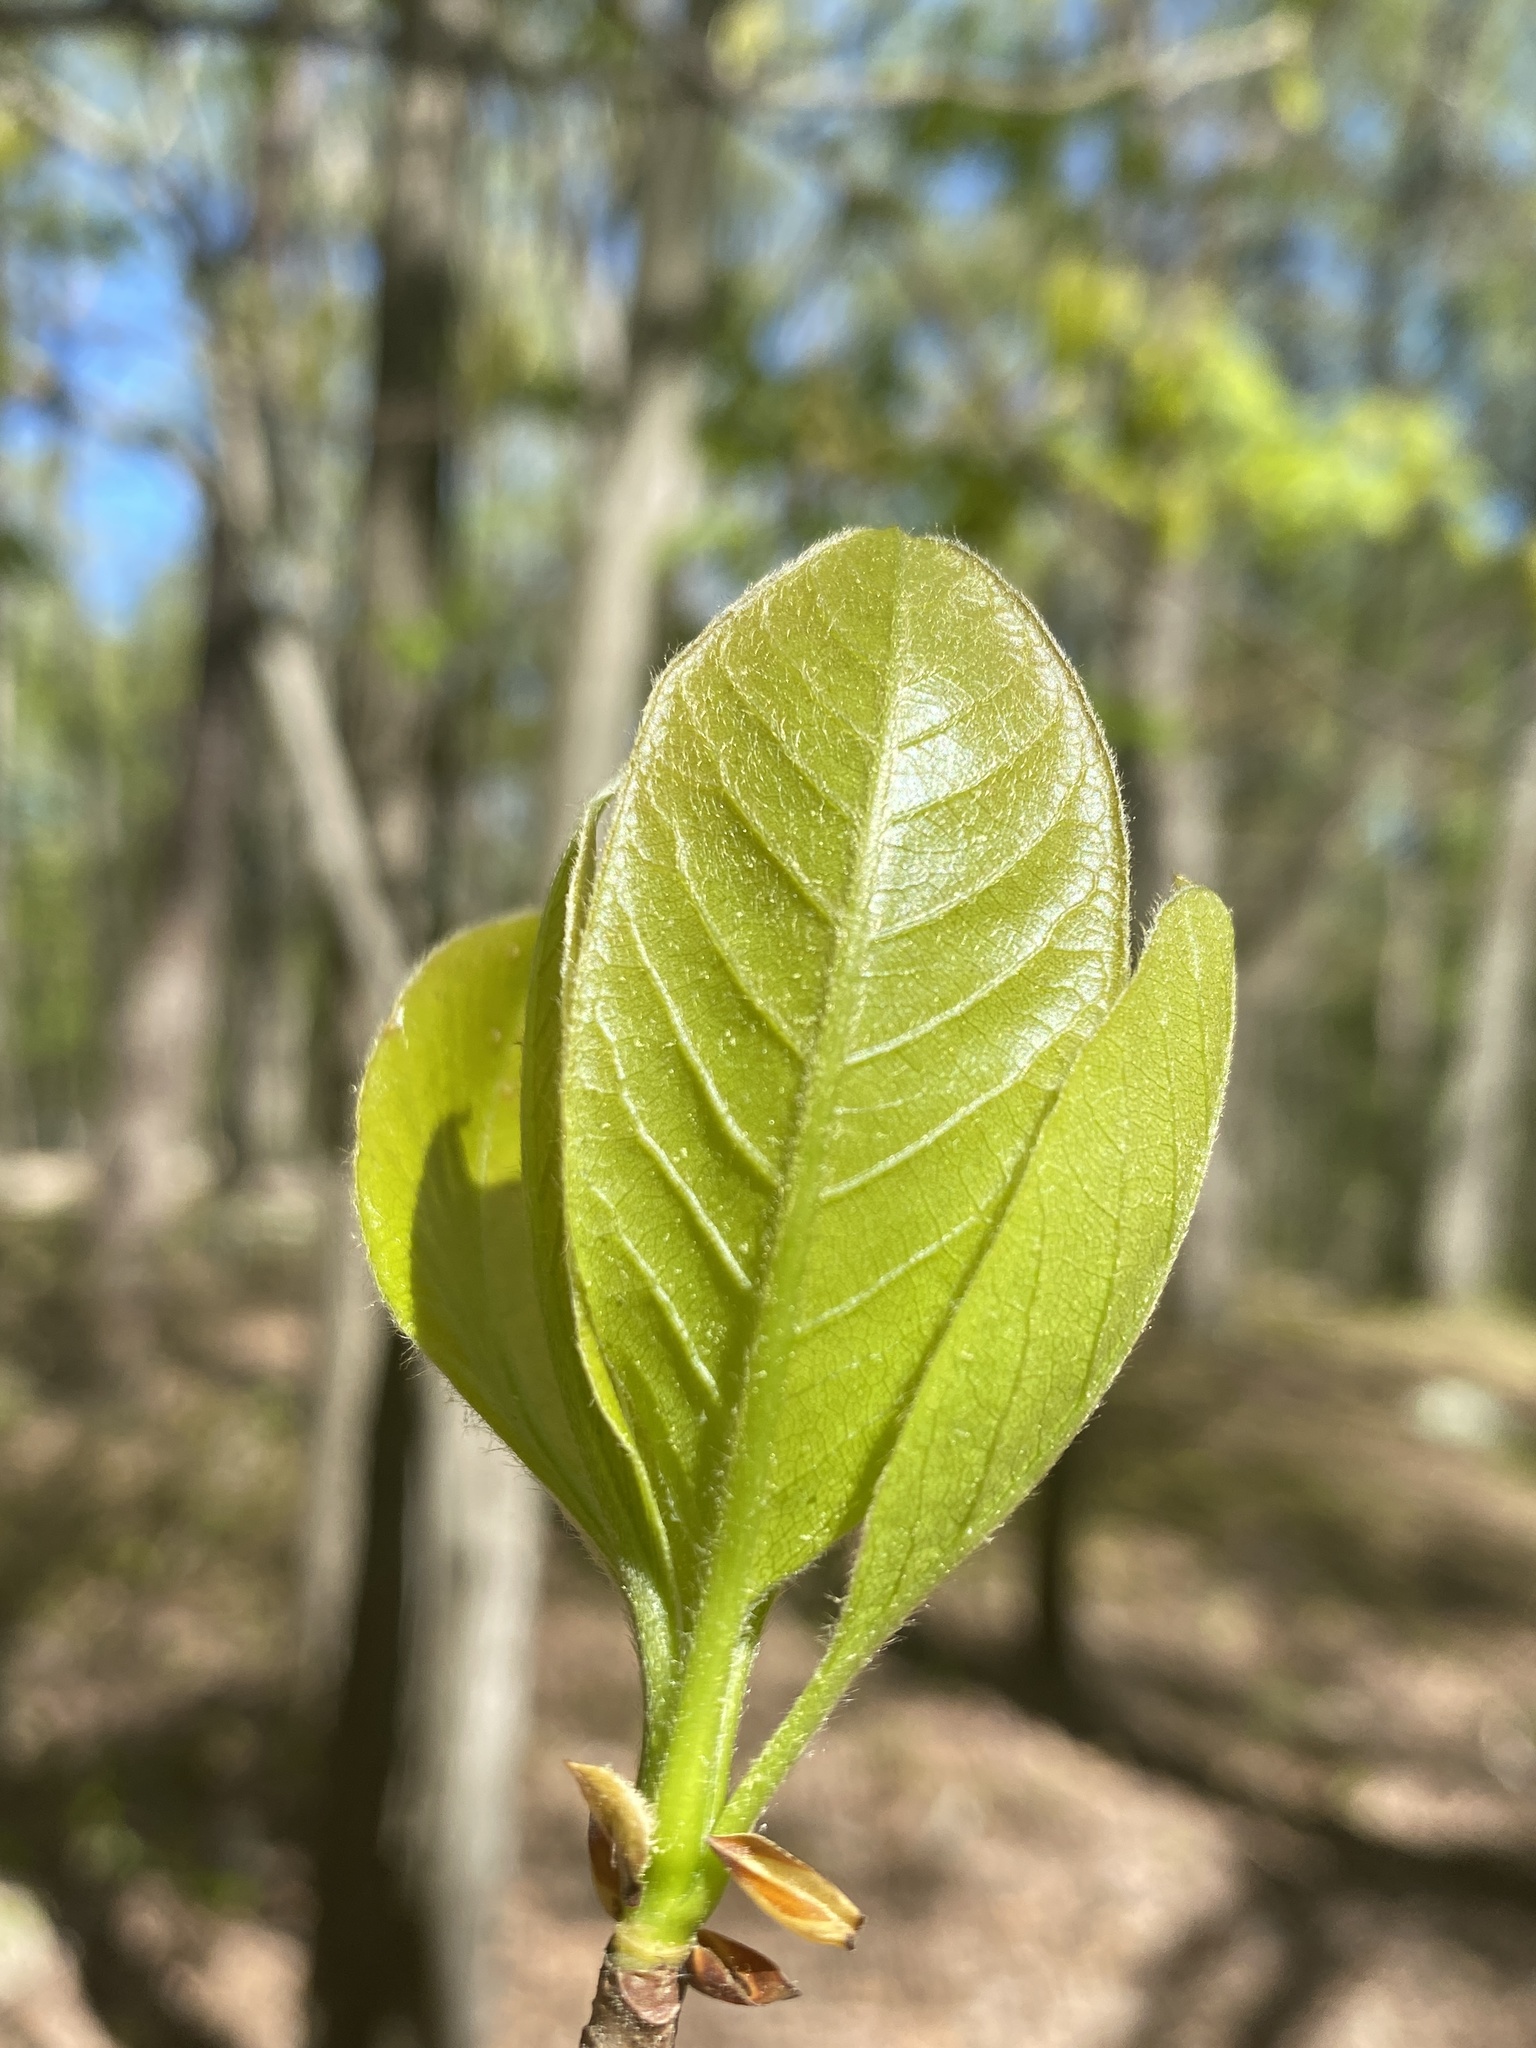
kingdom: Plantae
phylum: Tracheophyta
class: Magnoliopsida
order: Cornales
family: Nyssaceae
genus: Nyssa
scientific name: Nyssa sylvatica
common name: Black tupelo
